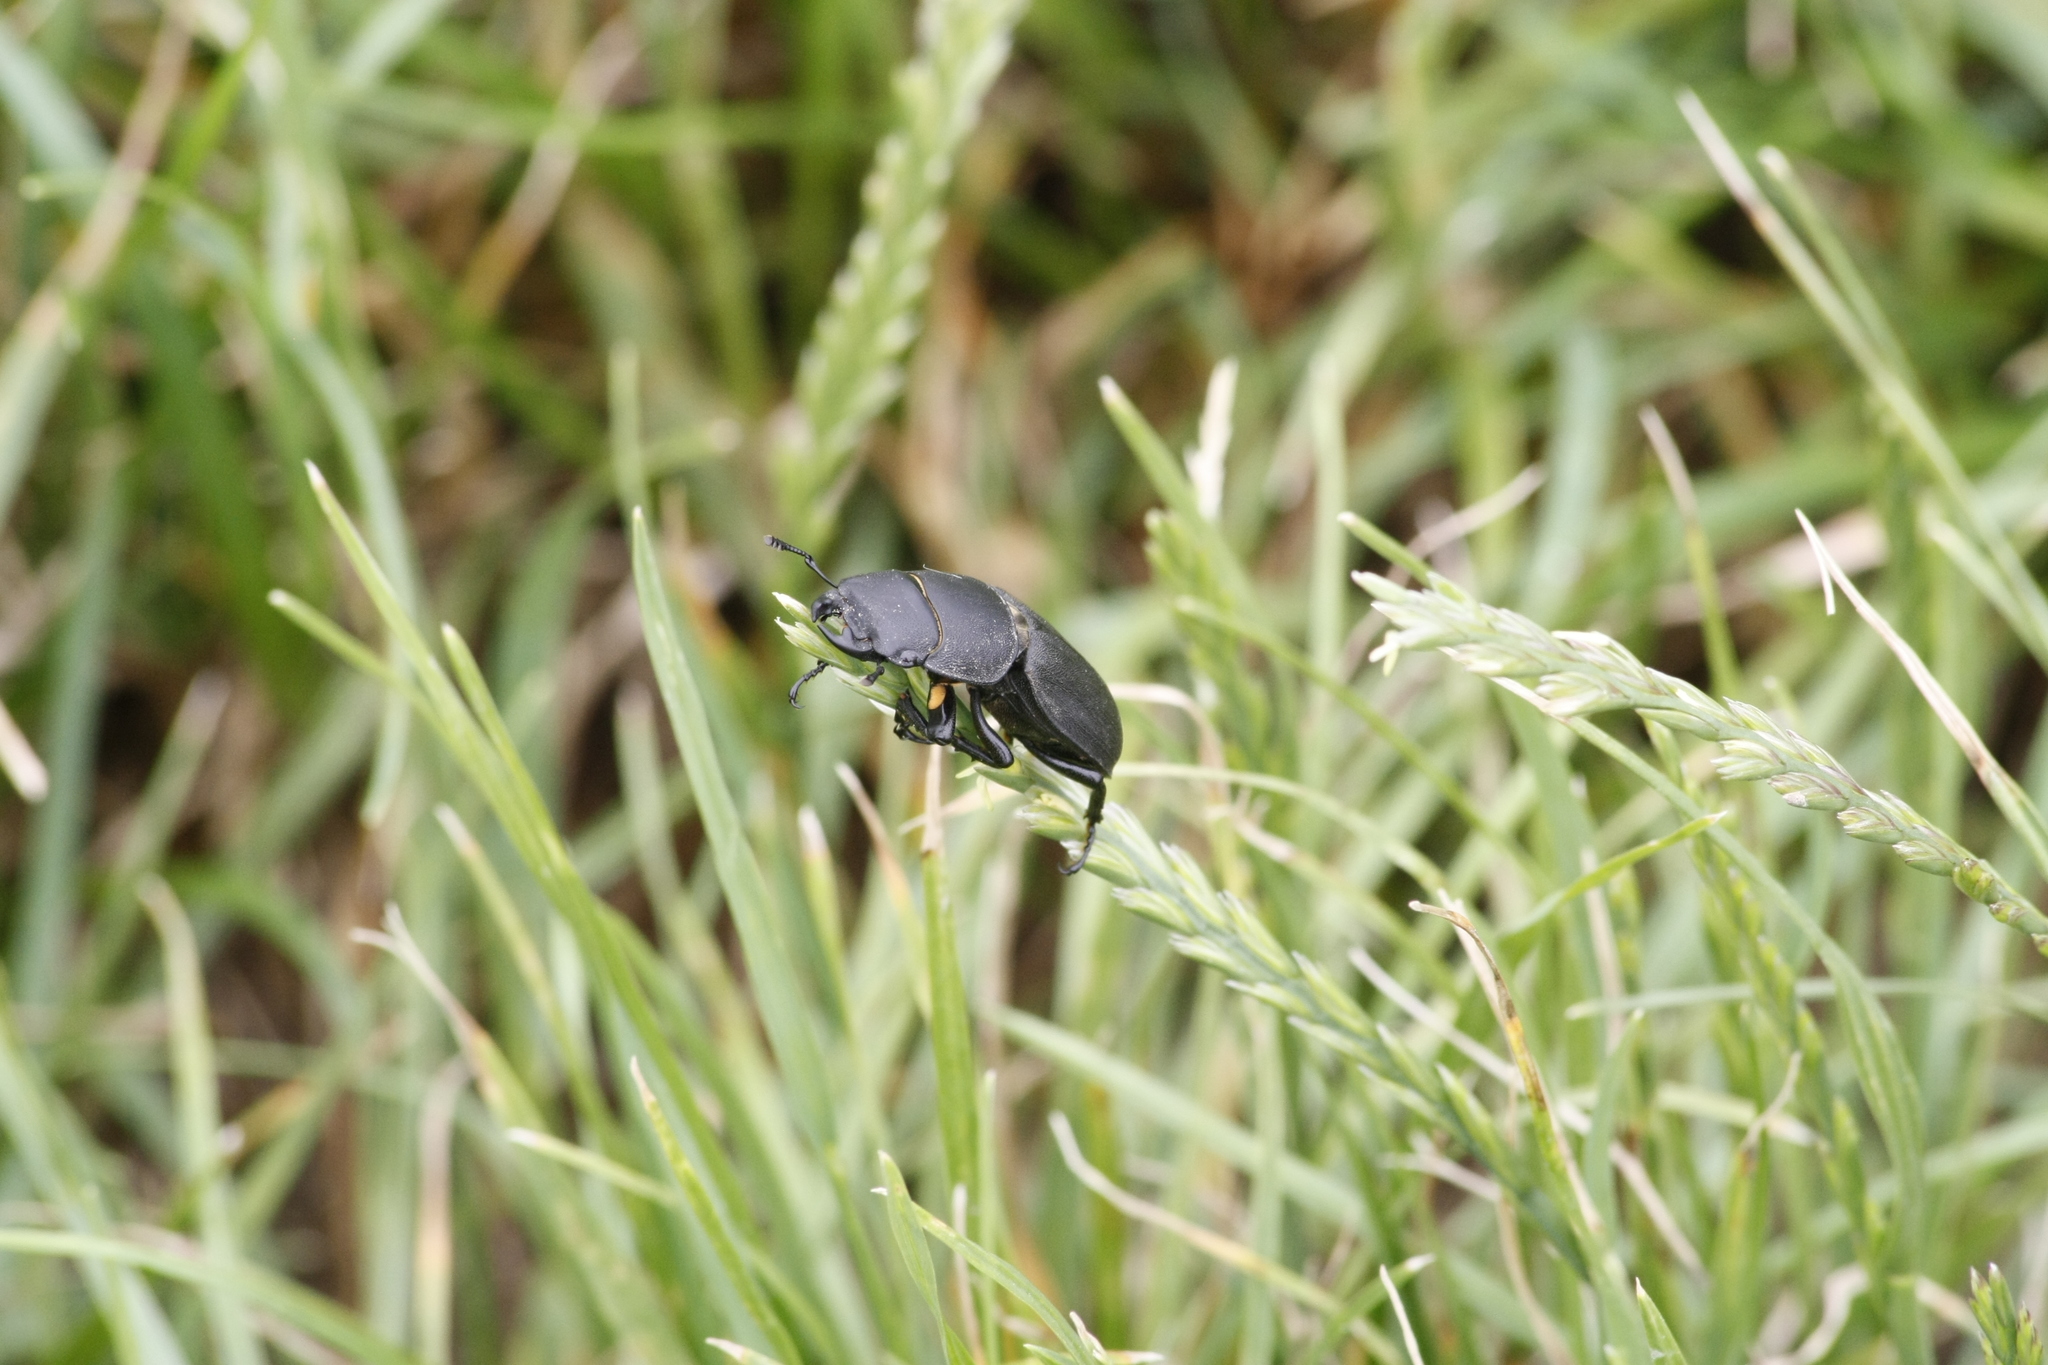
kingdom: Animalia
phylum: Arthropoda
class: Insecta
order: Coleoptera
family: Lucanidae
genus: Dorcus
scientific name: Dorcus parallelipipedus
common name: Lesser stag beetle
